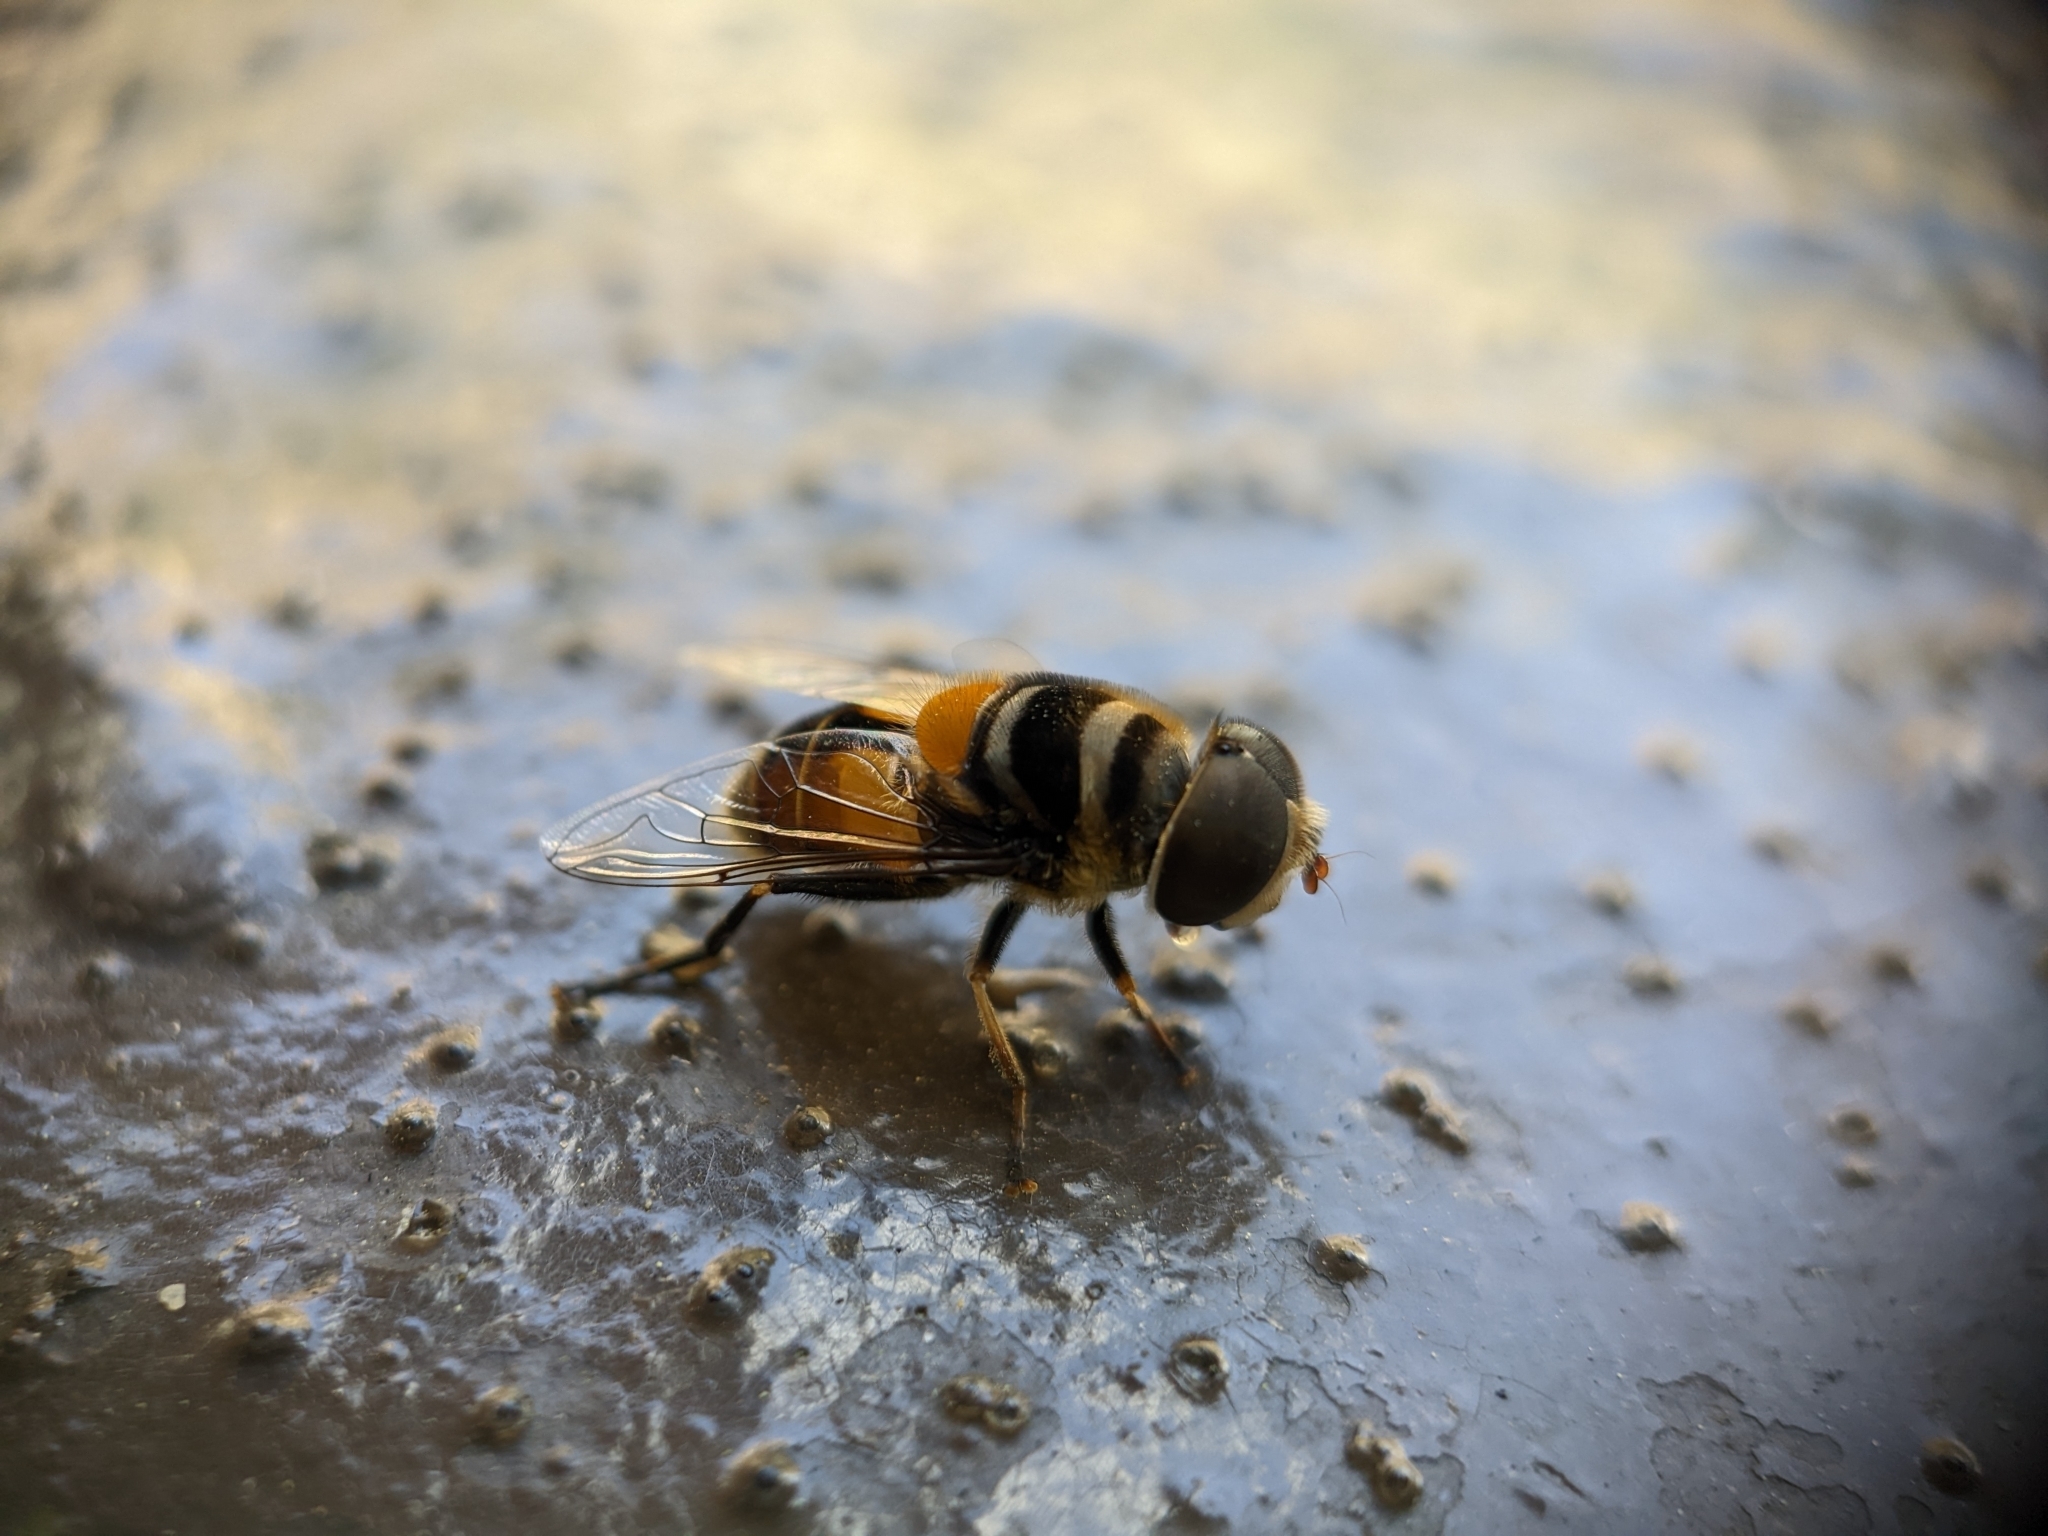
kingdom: Animalia
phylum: Arthropoda
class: Insecta
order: Diptera
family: Syrphidae
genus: Palpada
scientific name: Palpada agrorum
